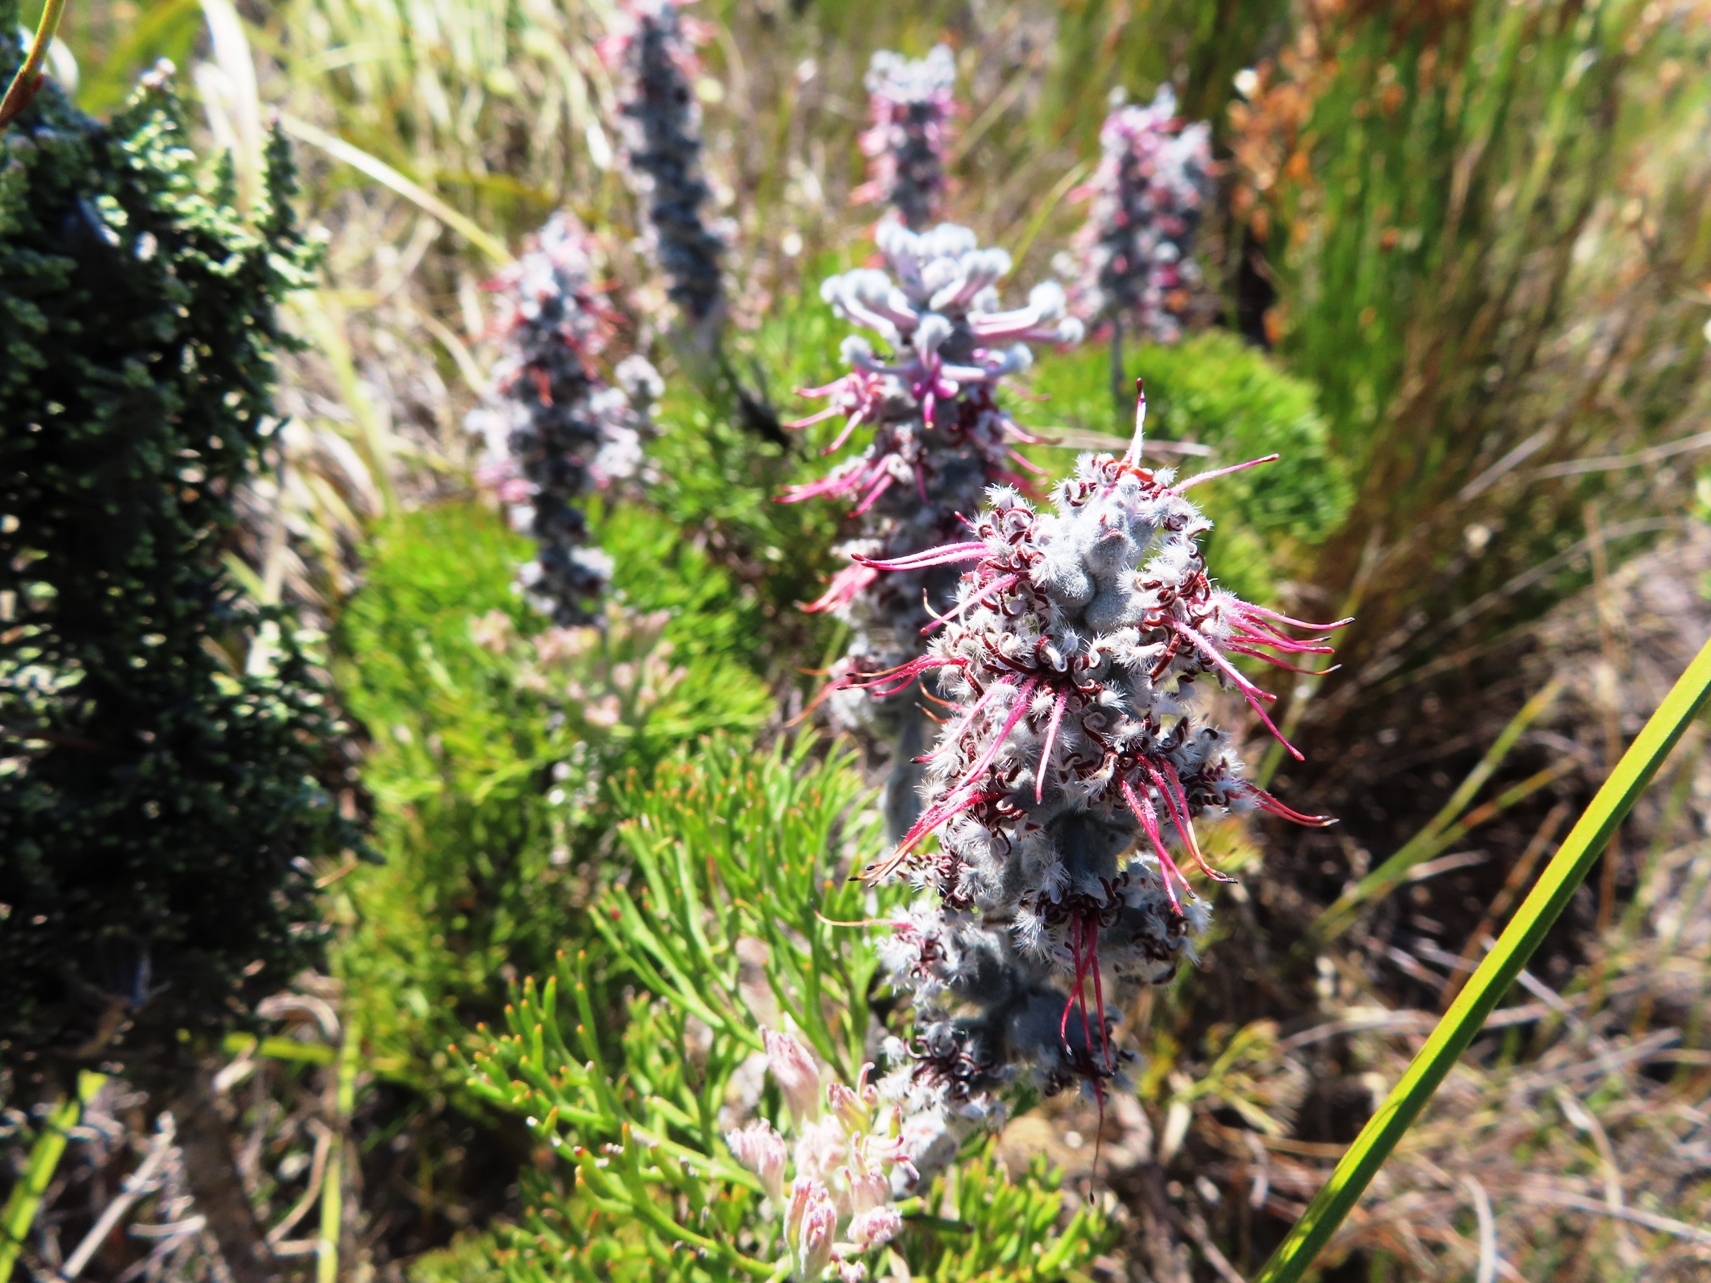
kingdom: Plantae
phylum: Tracheophyta
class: Magnoliopsida
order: Proteales
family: Proteaceae
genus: Paranomus
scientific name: Paranomus bolusii
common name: Overberg sceptre
